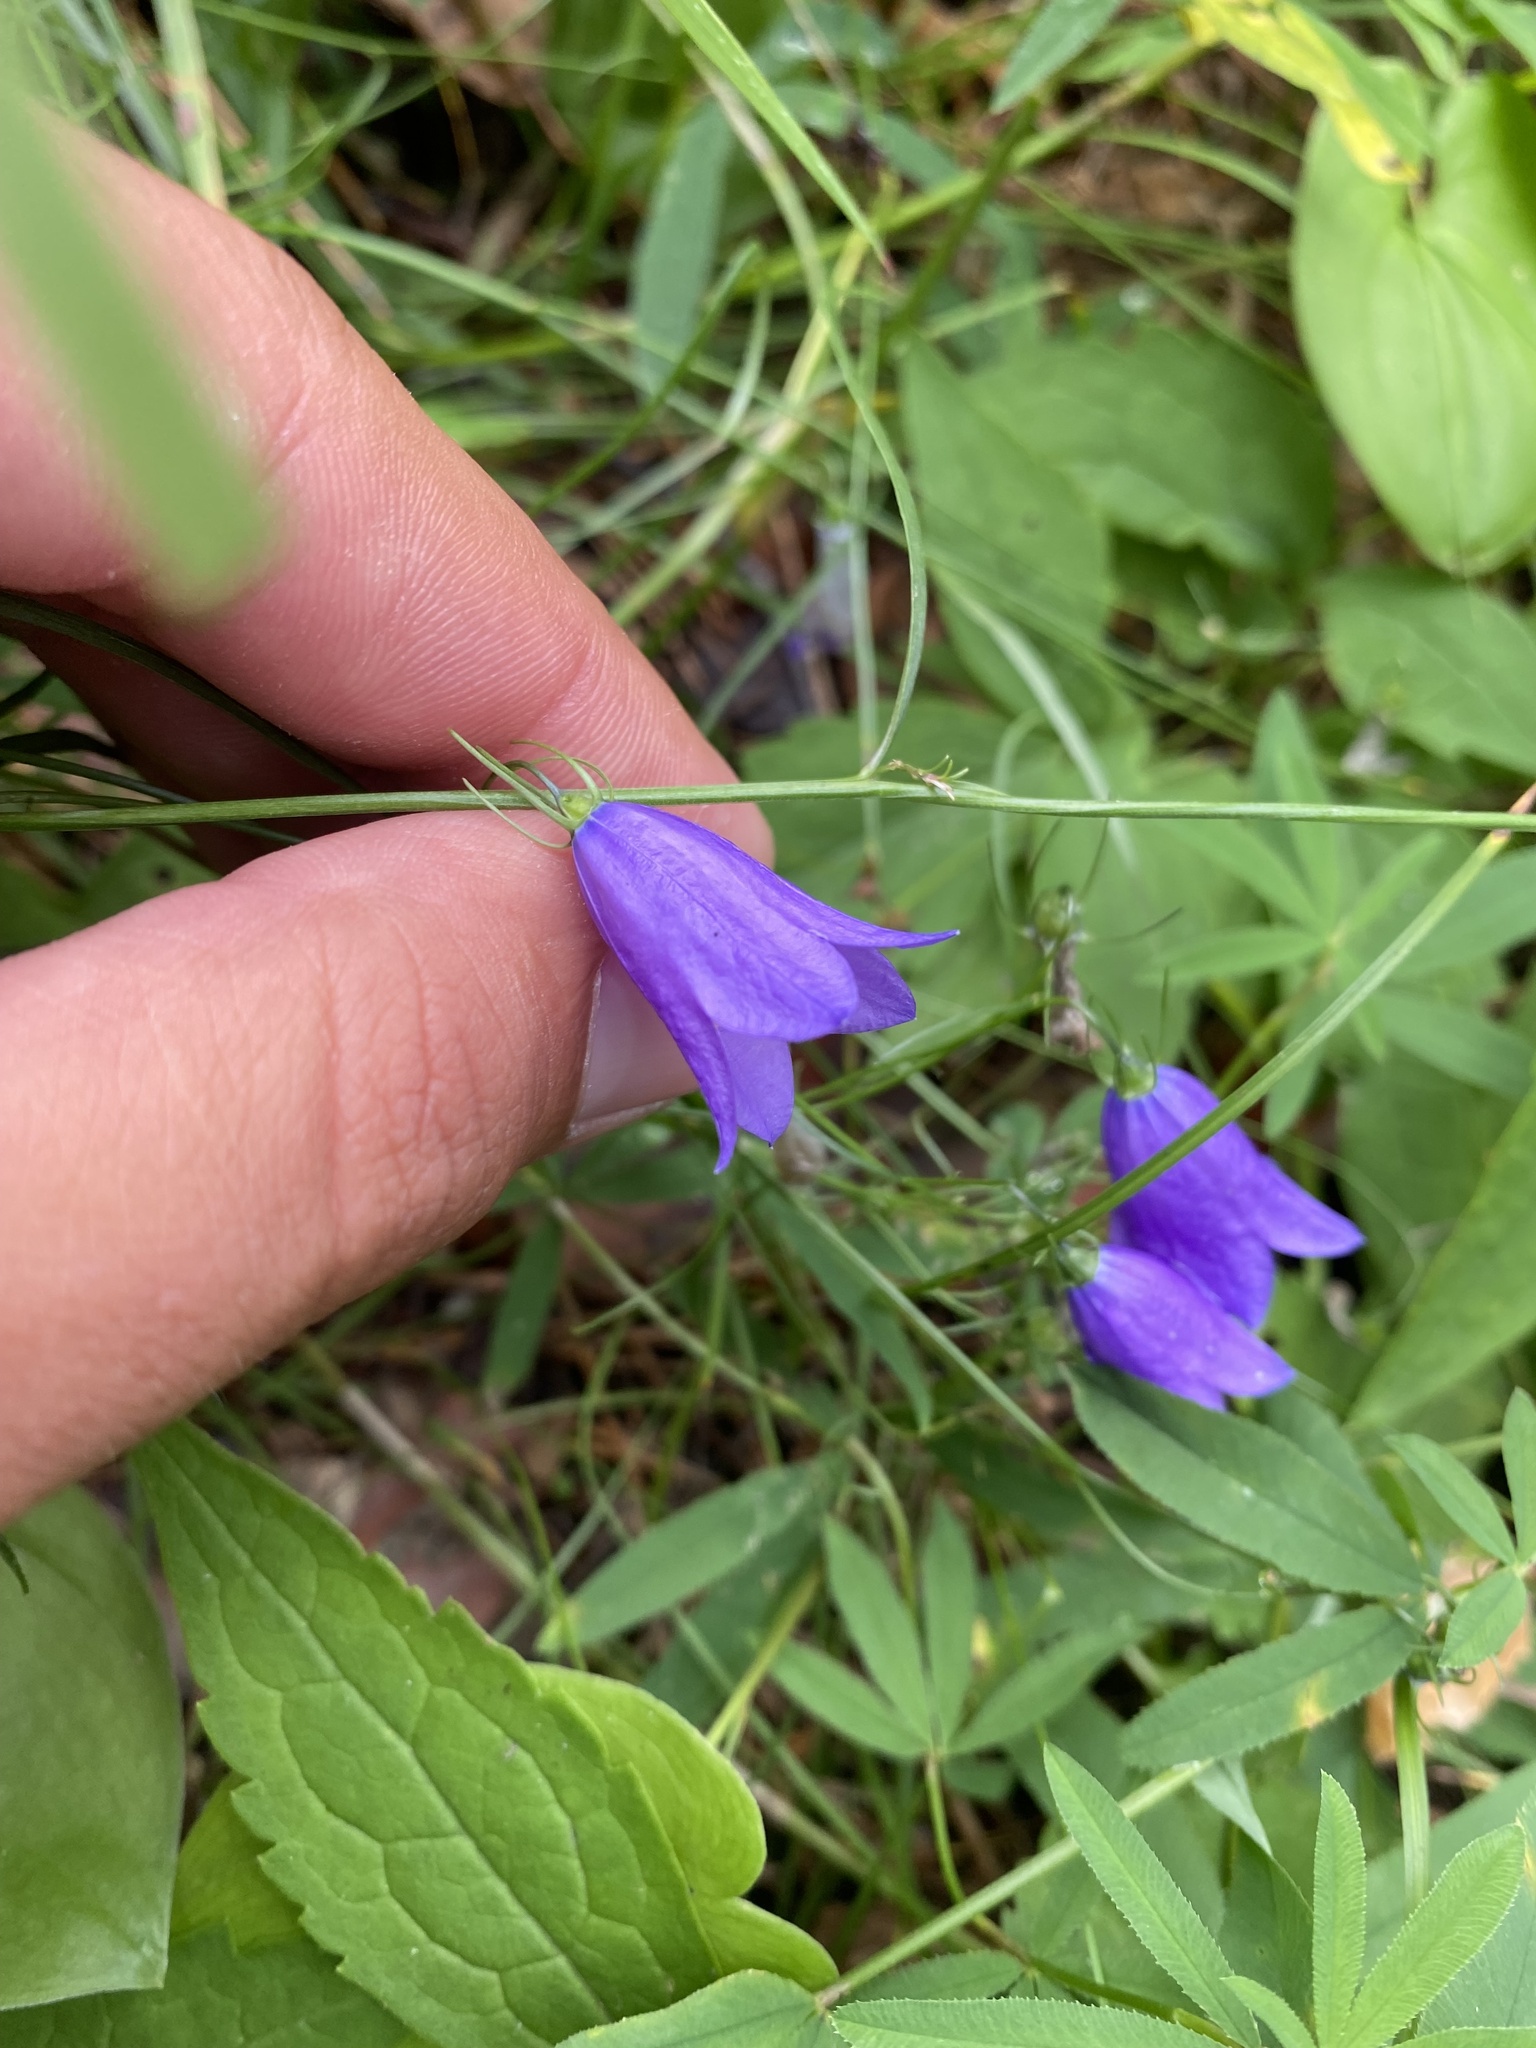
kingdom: Plantae
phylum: Tracheophyta
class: Magnoliopsida
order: Asterales
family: Campanulaceae
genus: Campanula
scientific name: Campanula rotundifolia
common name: Harebell
